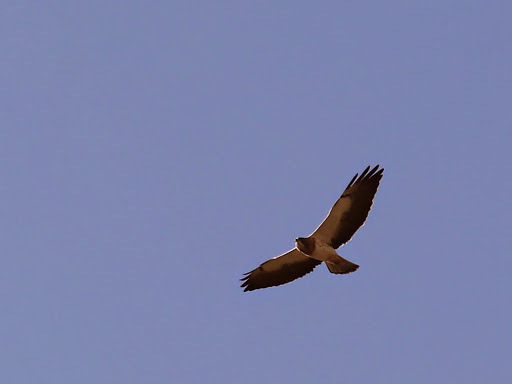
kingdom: Animalia
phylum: Chordata
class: Aves
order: Accipitriformes
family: Accipitridae
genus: Buteo
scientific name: Buteo swainsoni
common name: Swainson's hawk
